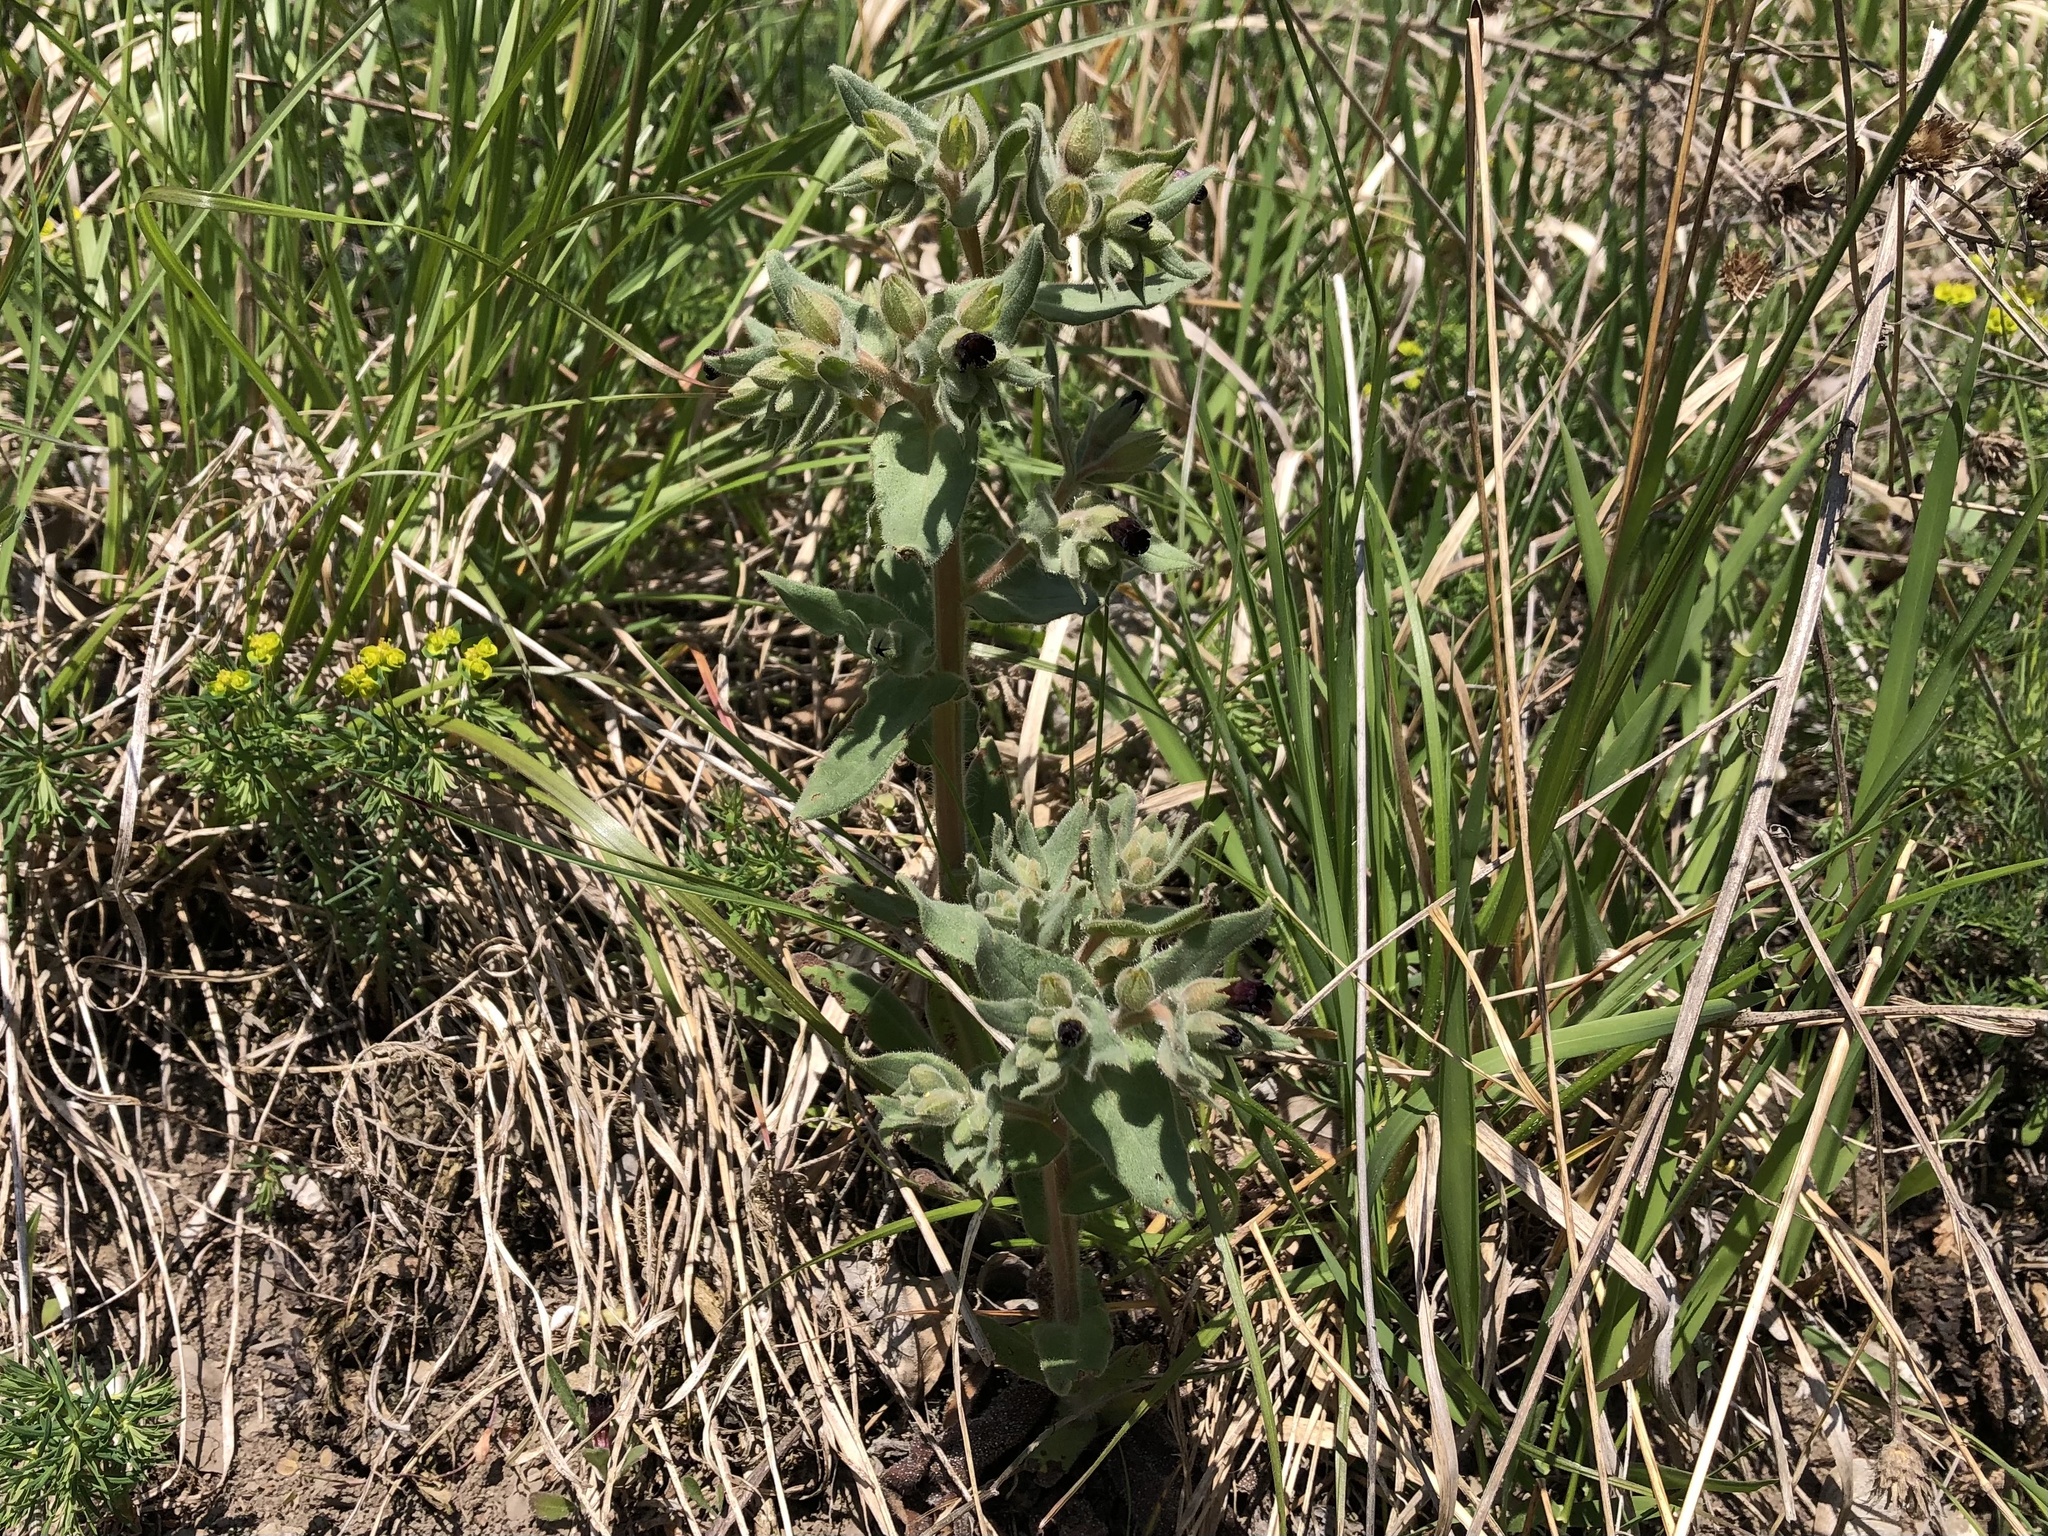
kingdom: Plantae
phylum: Tracheophyta
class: Magnoliopsida
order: Boraginales
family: Boraginaceae
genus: Nonea
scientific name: Nonea pulla
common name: Brown nonea
